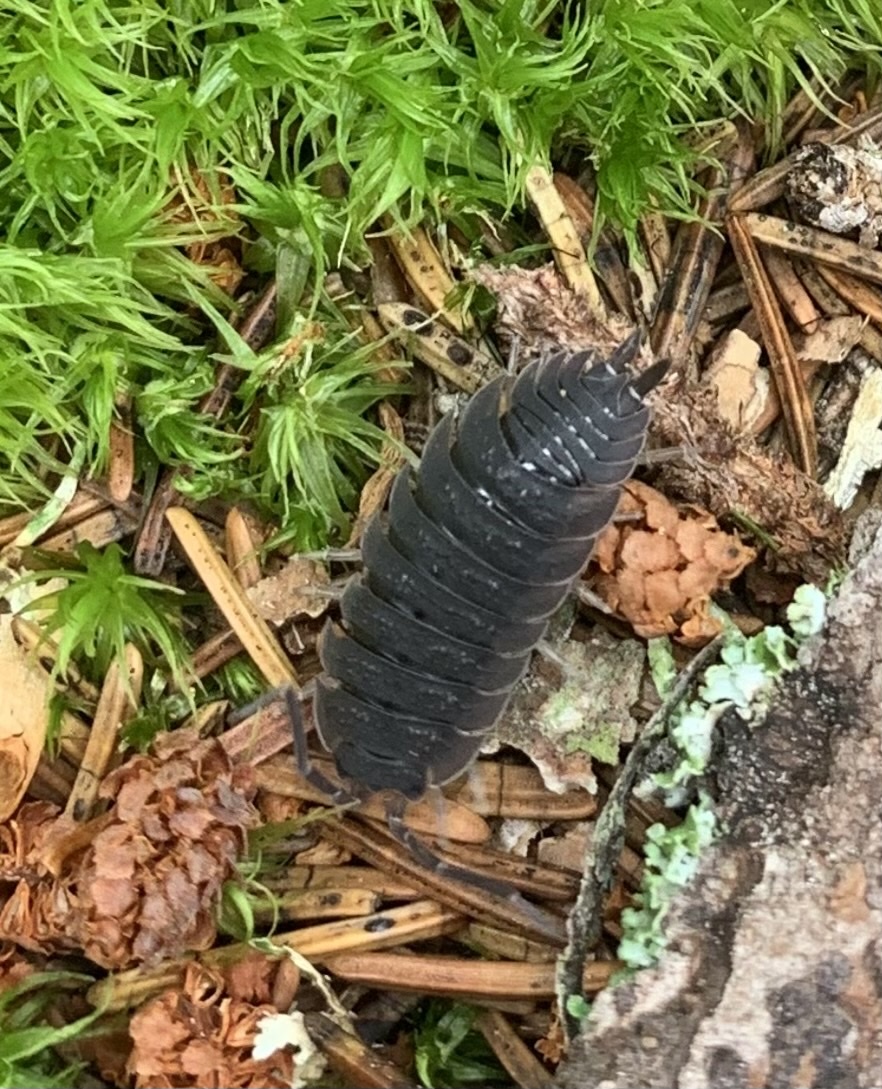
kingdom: Animalia
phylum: Arthropoda
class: Malacostraca
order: Isopoda
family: Porcellionidae
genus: Porcellio
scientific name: Porcellio scaber
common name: Common rough woodlouse
